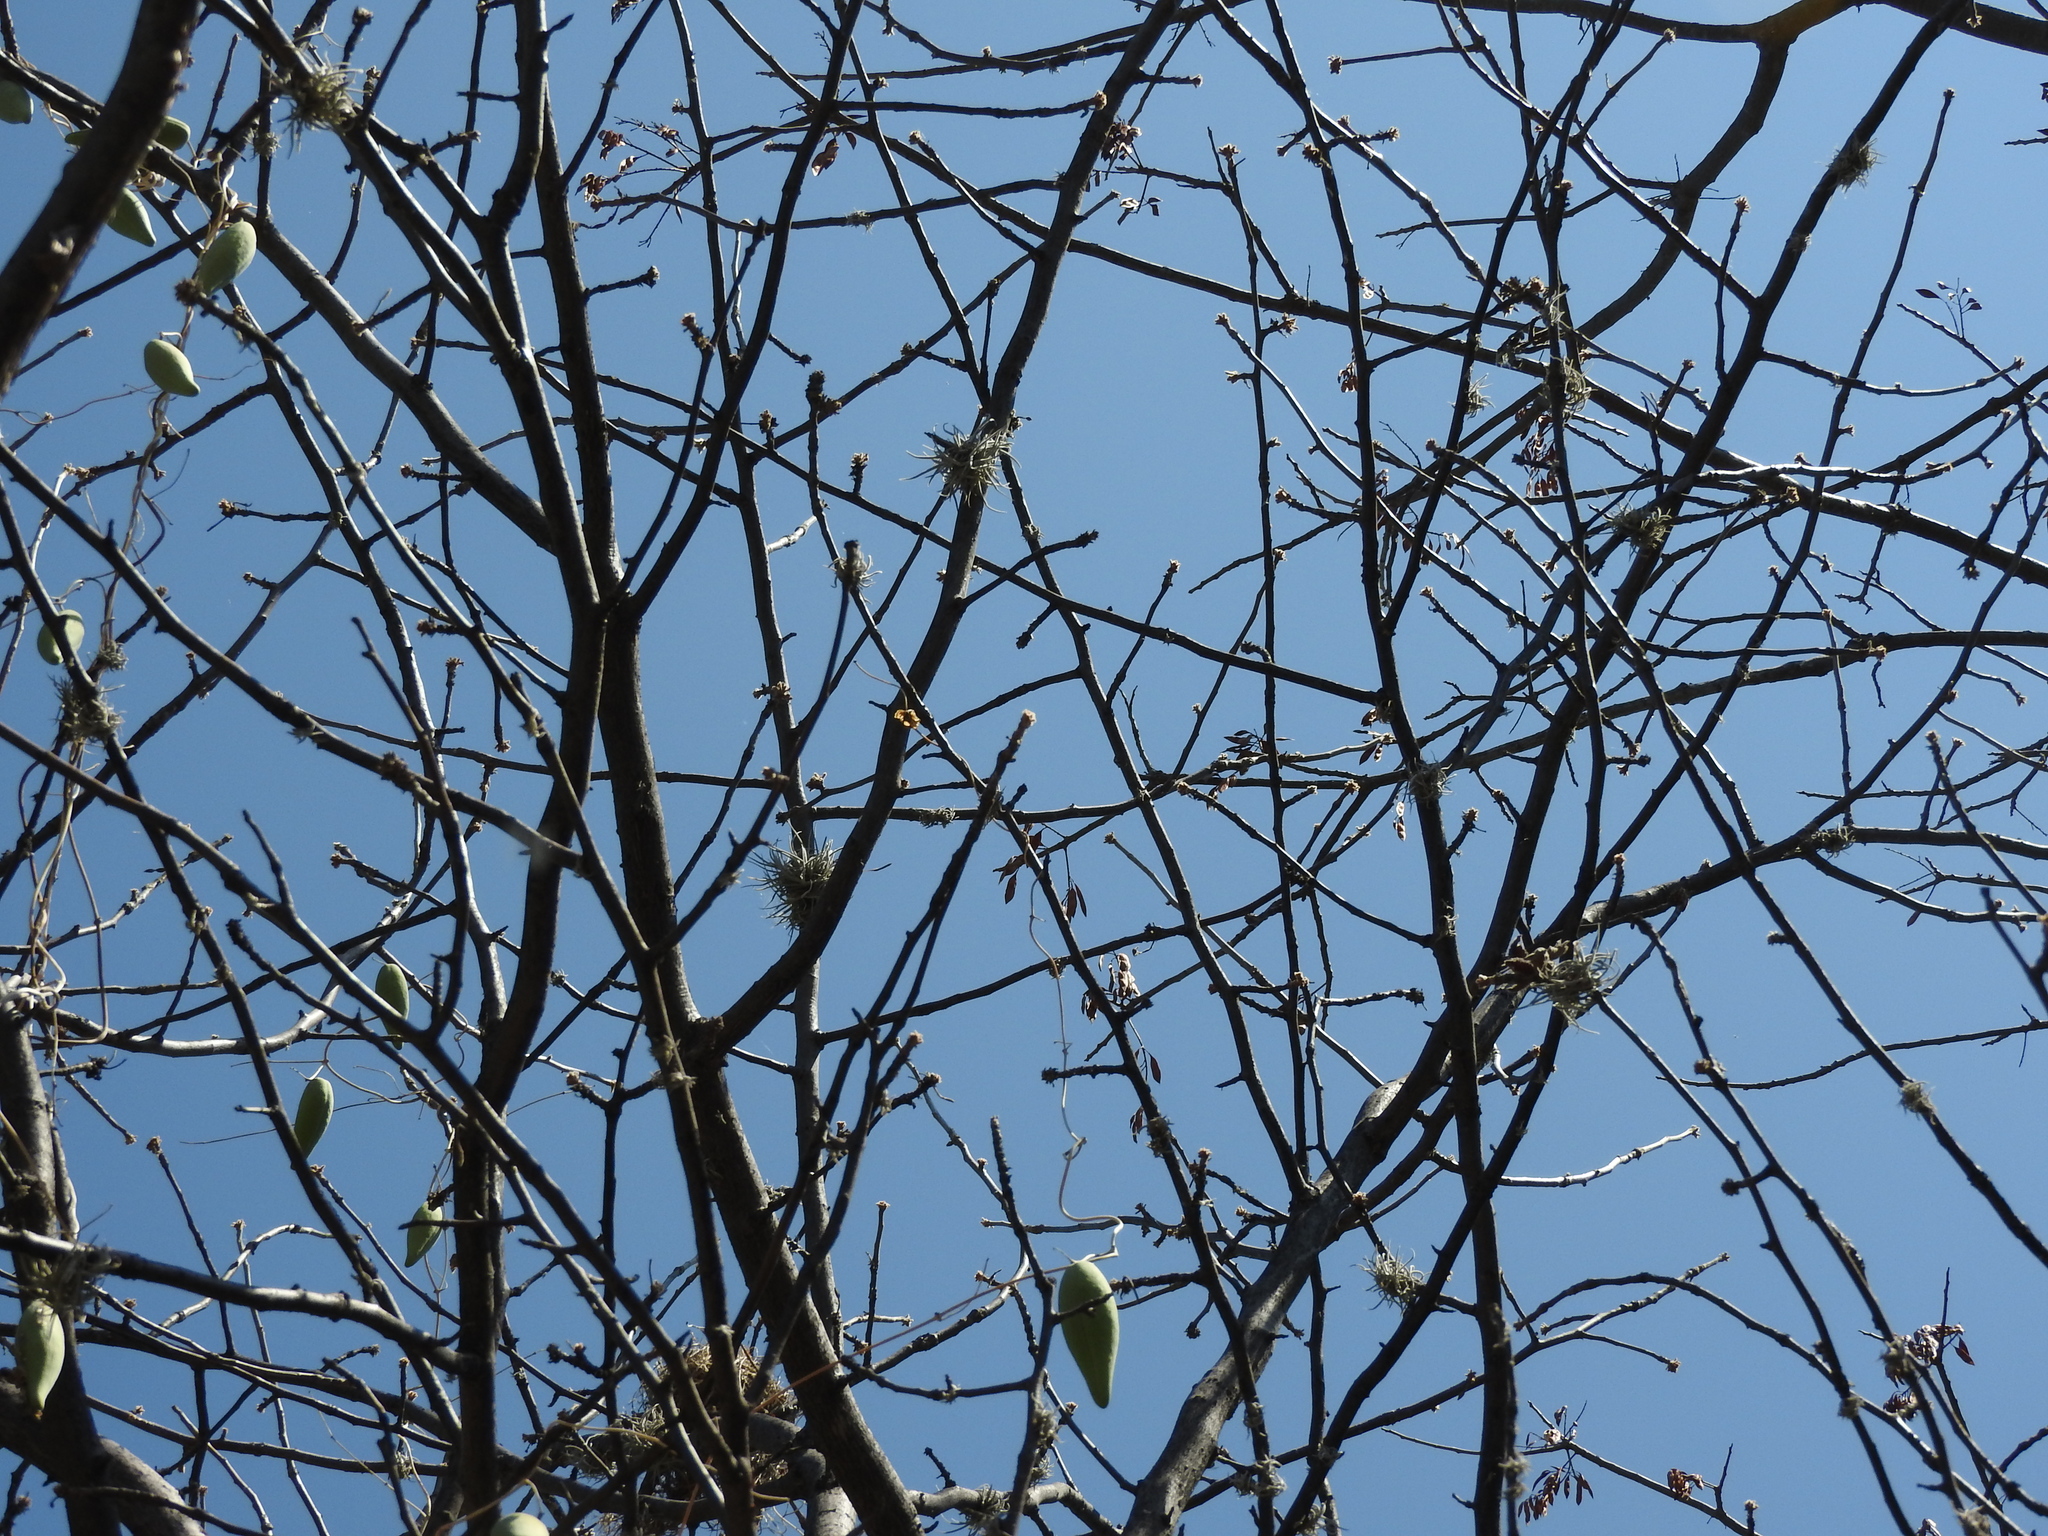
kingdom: Plantae
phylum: Tracheophyta
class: Magnoliopsida
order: Gentianales
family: Apocynaceae
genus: Funastrum
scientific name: Funastrum pannosum
